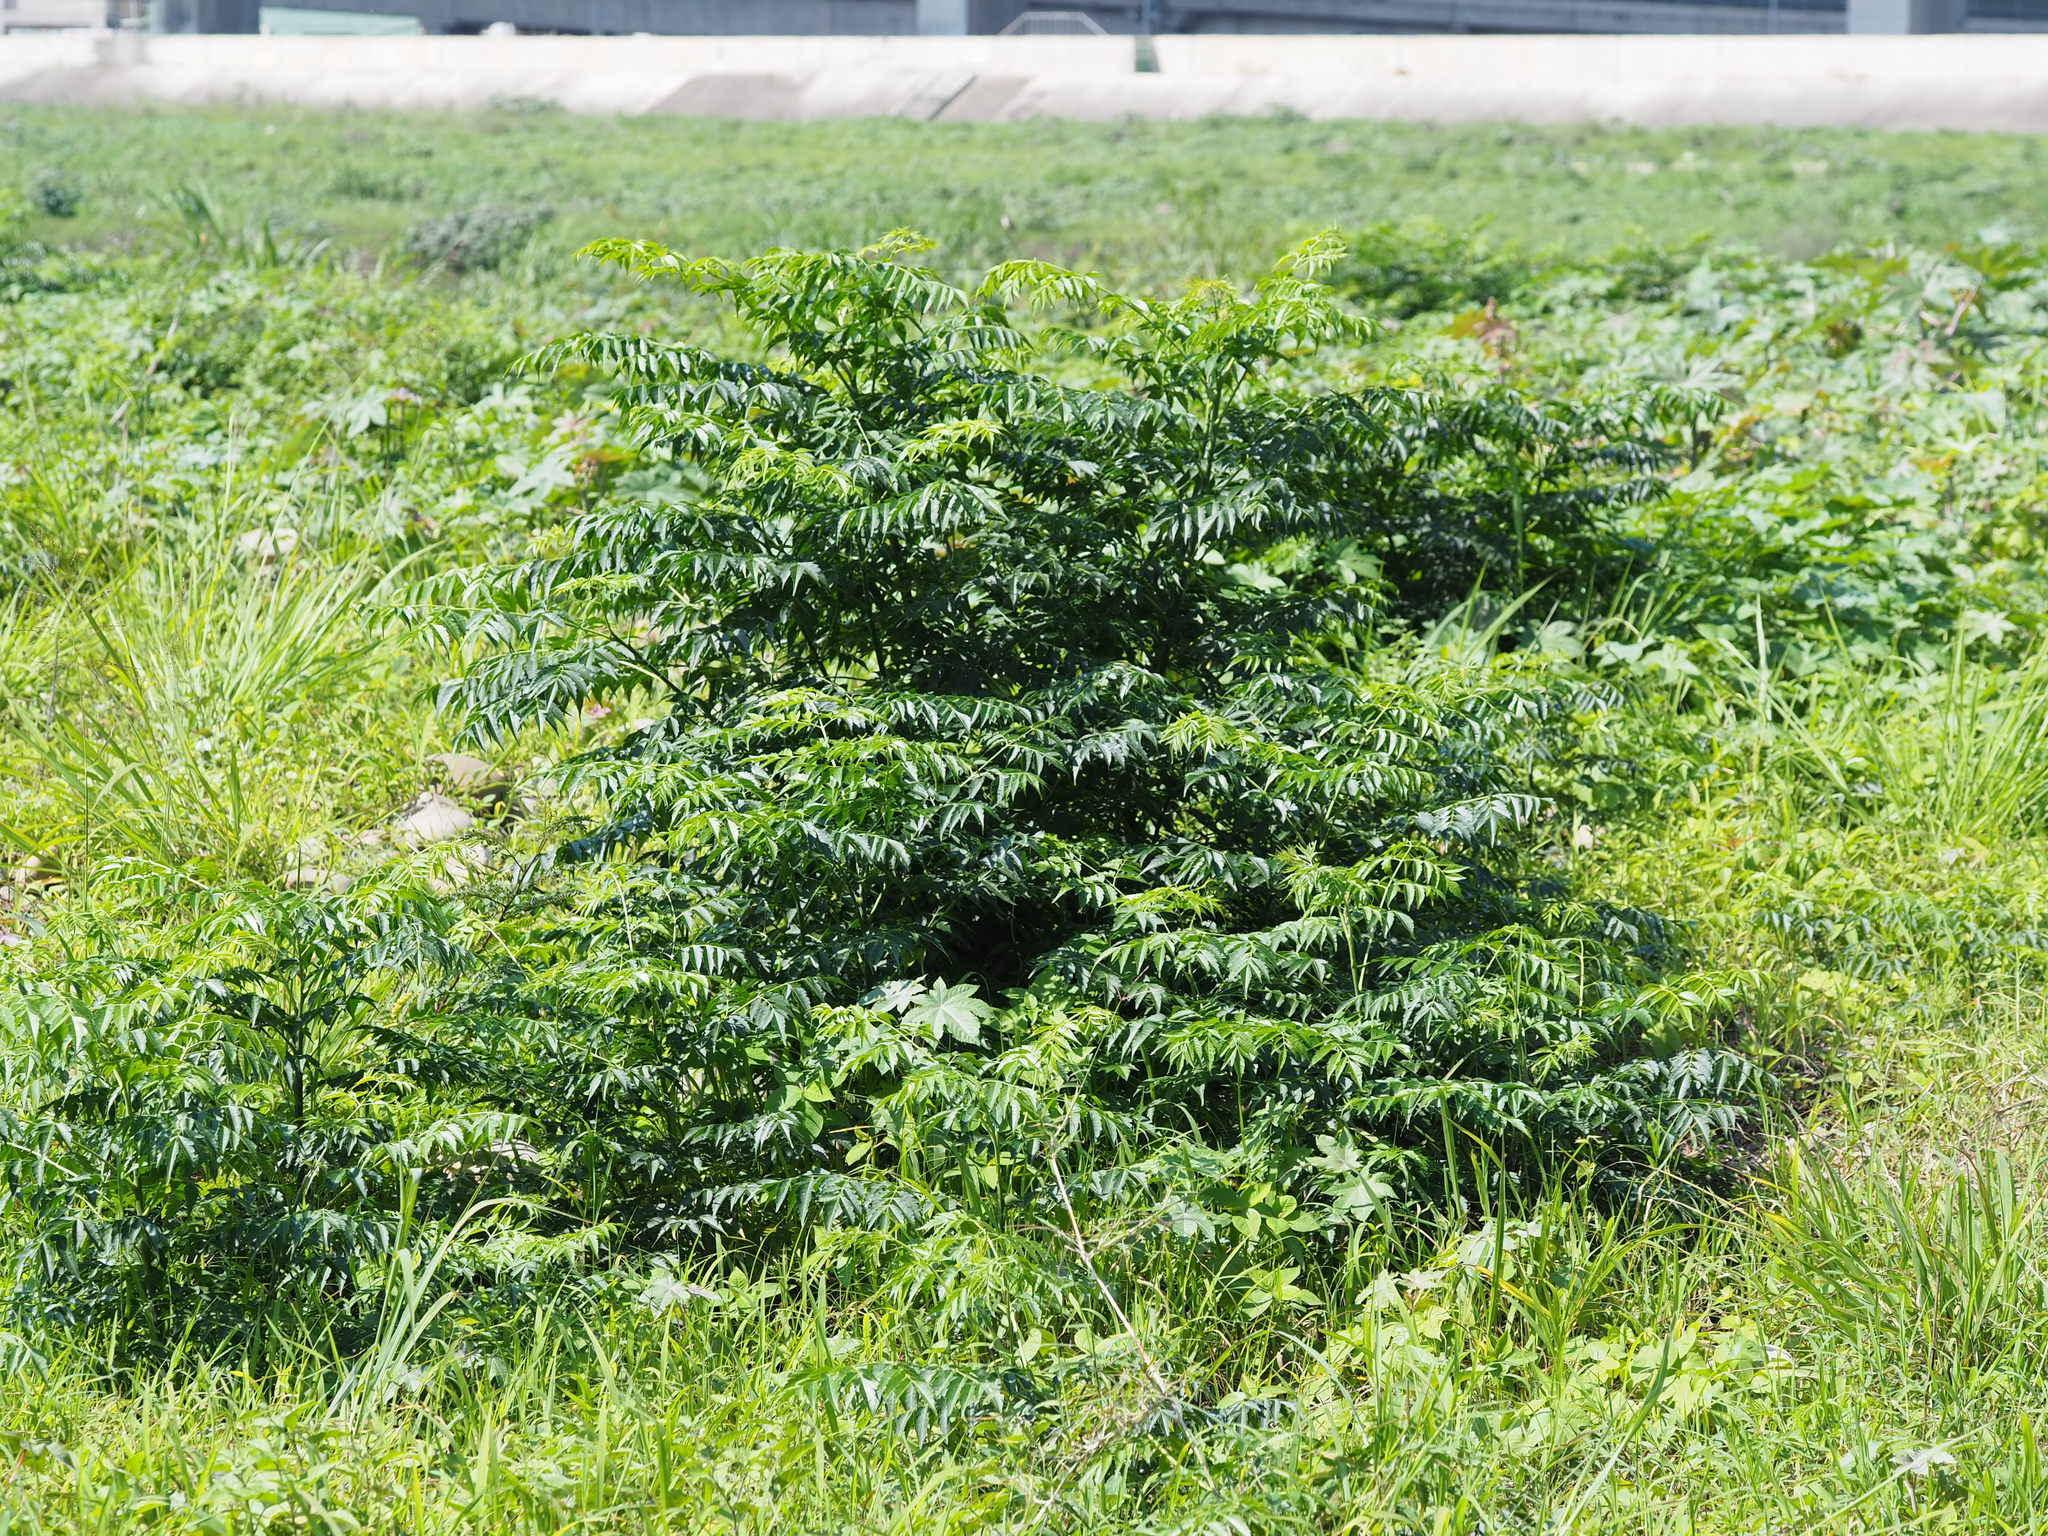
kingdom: Plantae
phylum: Tracheophyta
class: Magnoliopsida
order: Sapindales
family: Meliaceae
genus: Melia
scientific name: Melia azedarach
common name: Chinaberrytree
